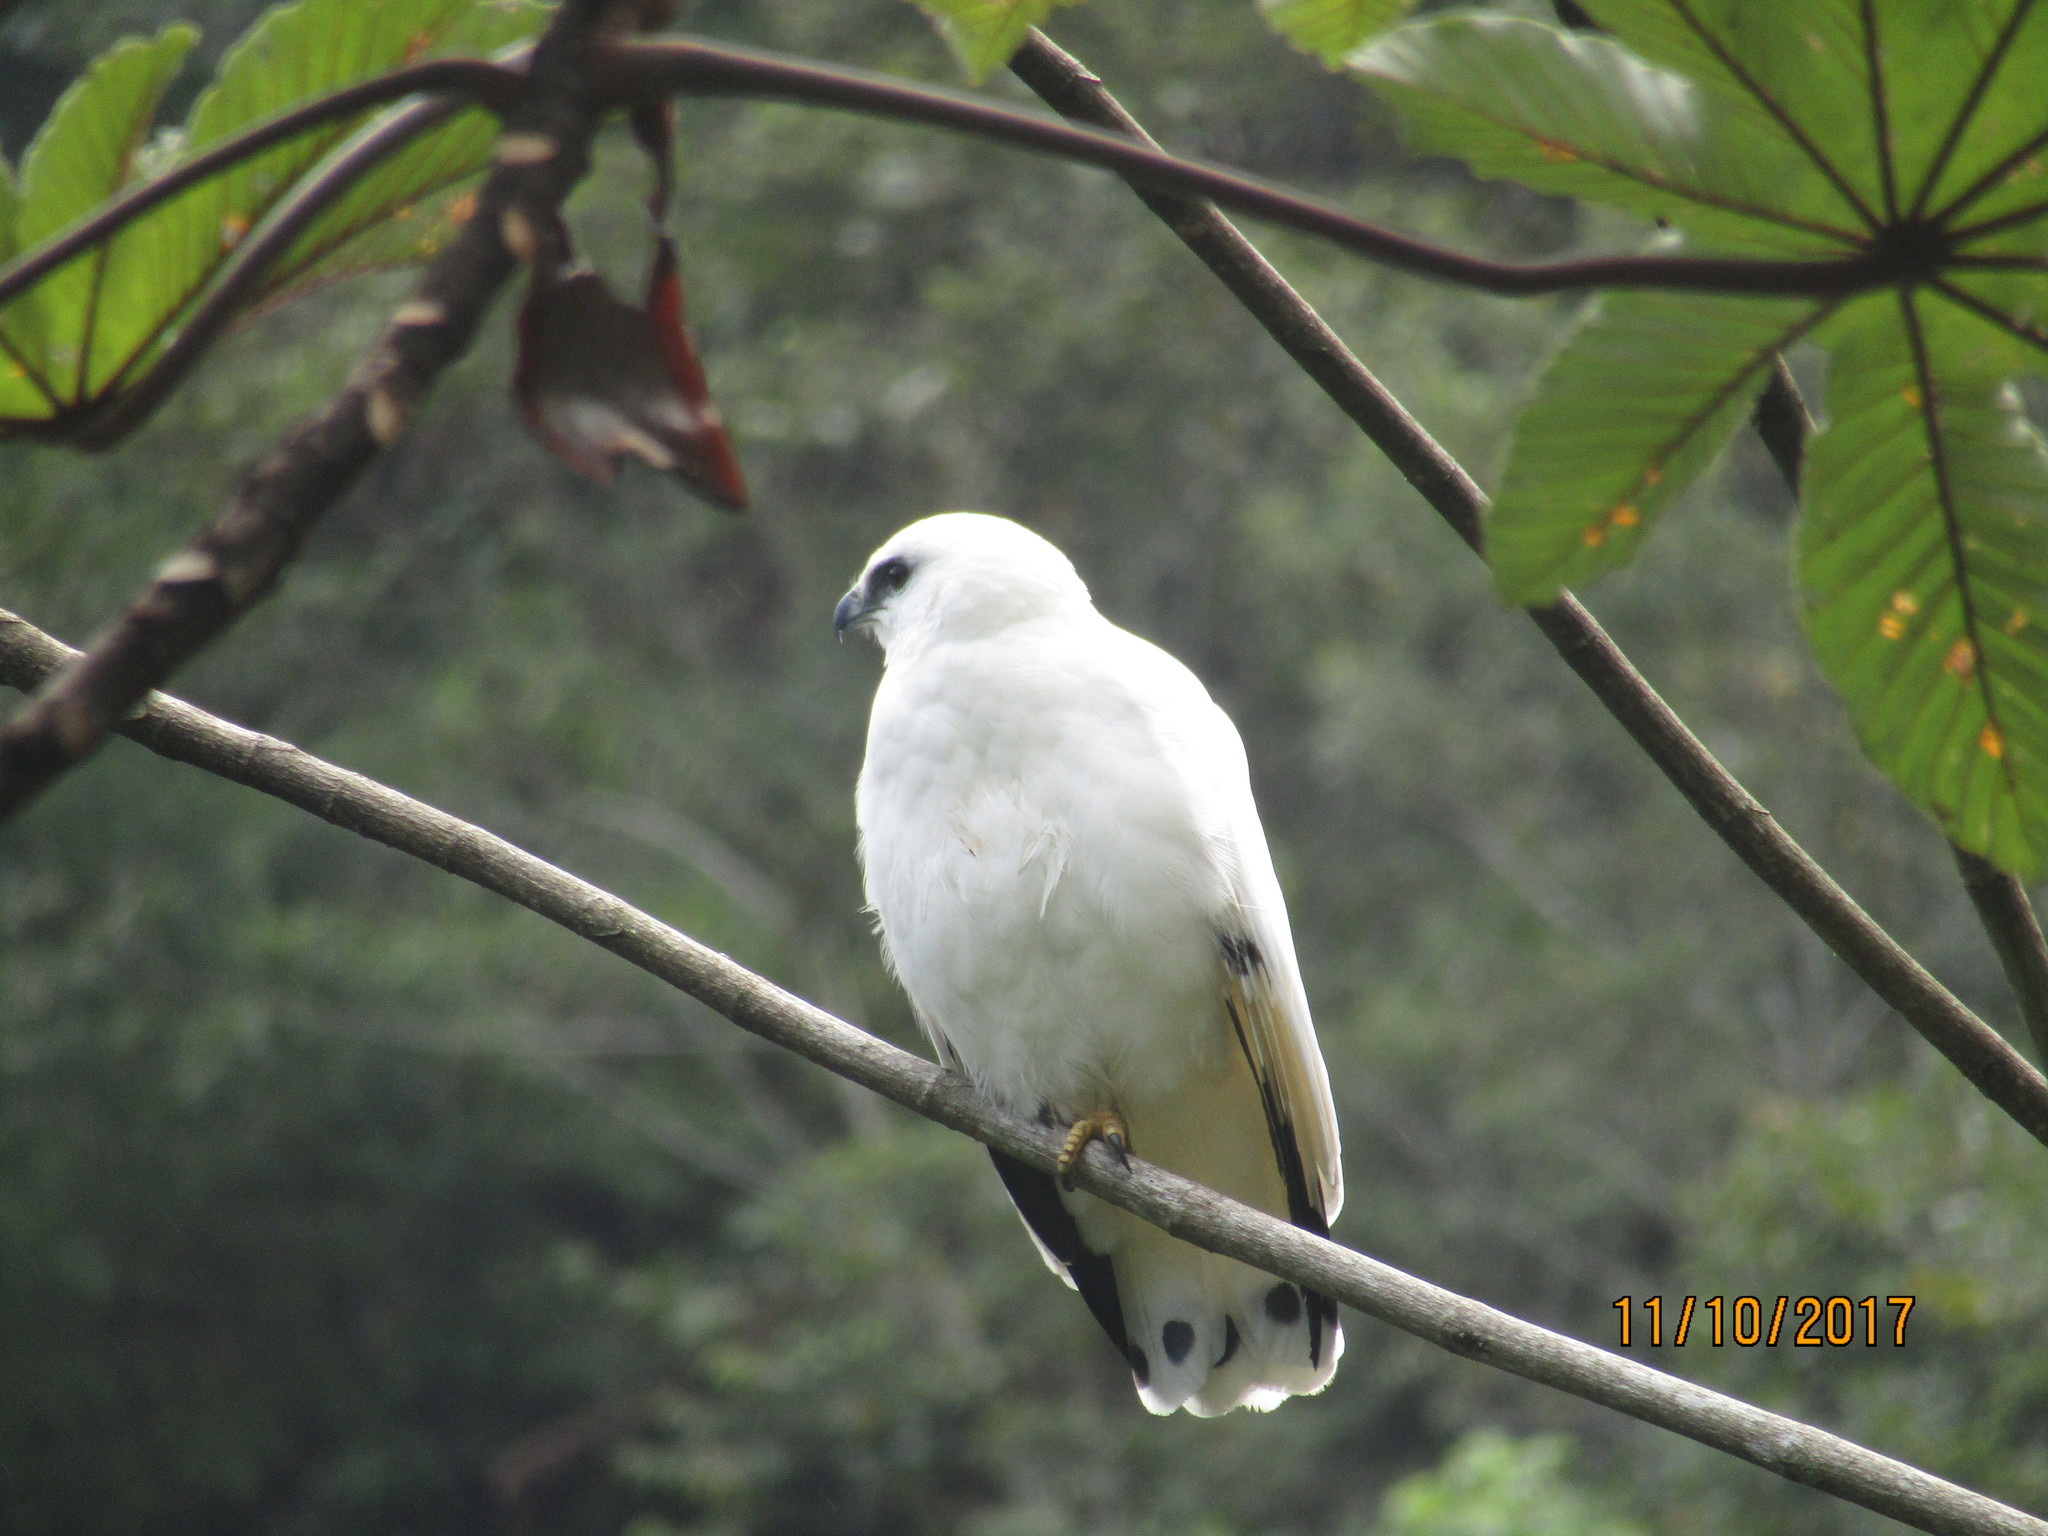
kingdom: Animalia
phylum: Chordata
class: Aves
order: Accipitriformes
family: Accipitridae
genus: Leucopternis
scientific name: Leucopternis albicollis
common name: White hawk
